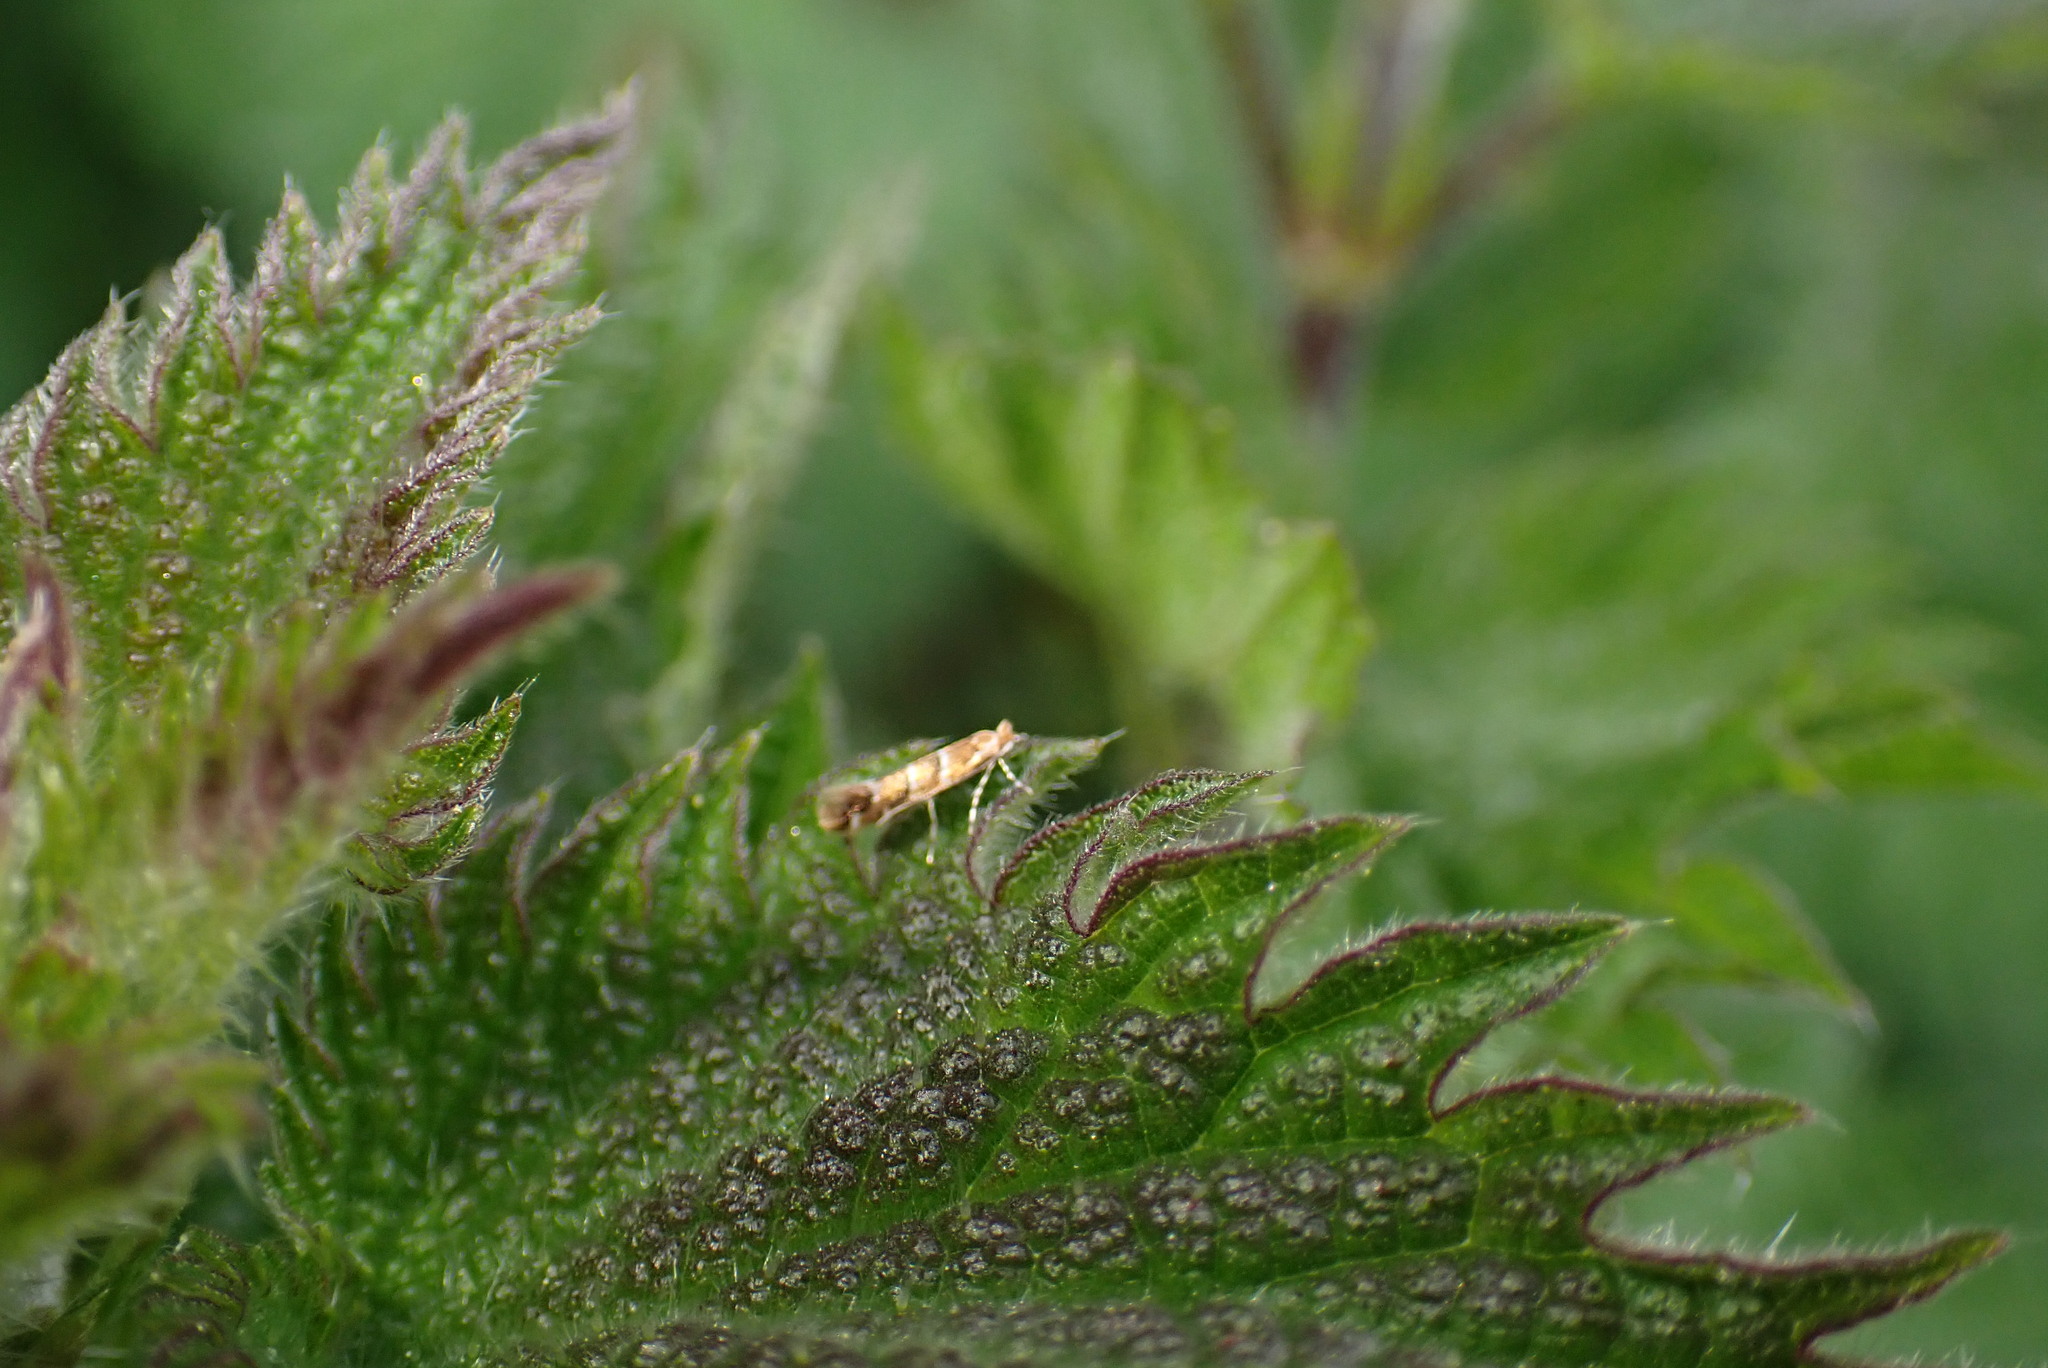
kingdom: Animalia
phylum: Arthropoda
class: Insecta
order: Lepidoptera
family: Gracillariidae
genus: Cameraria
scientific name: Cameraria ohridella
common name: Horse-chestnut leaf-miner
